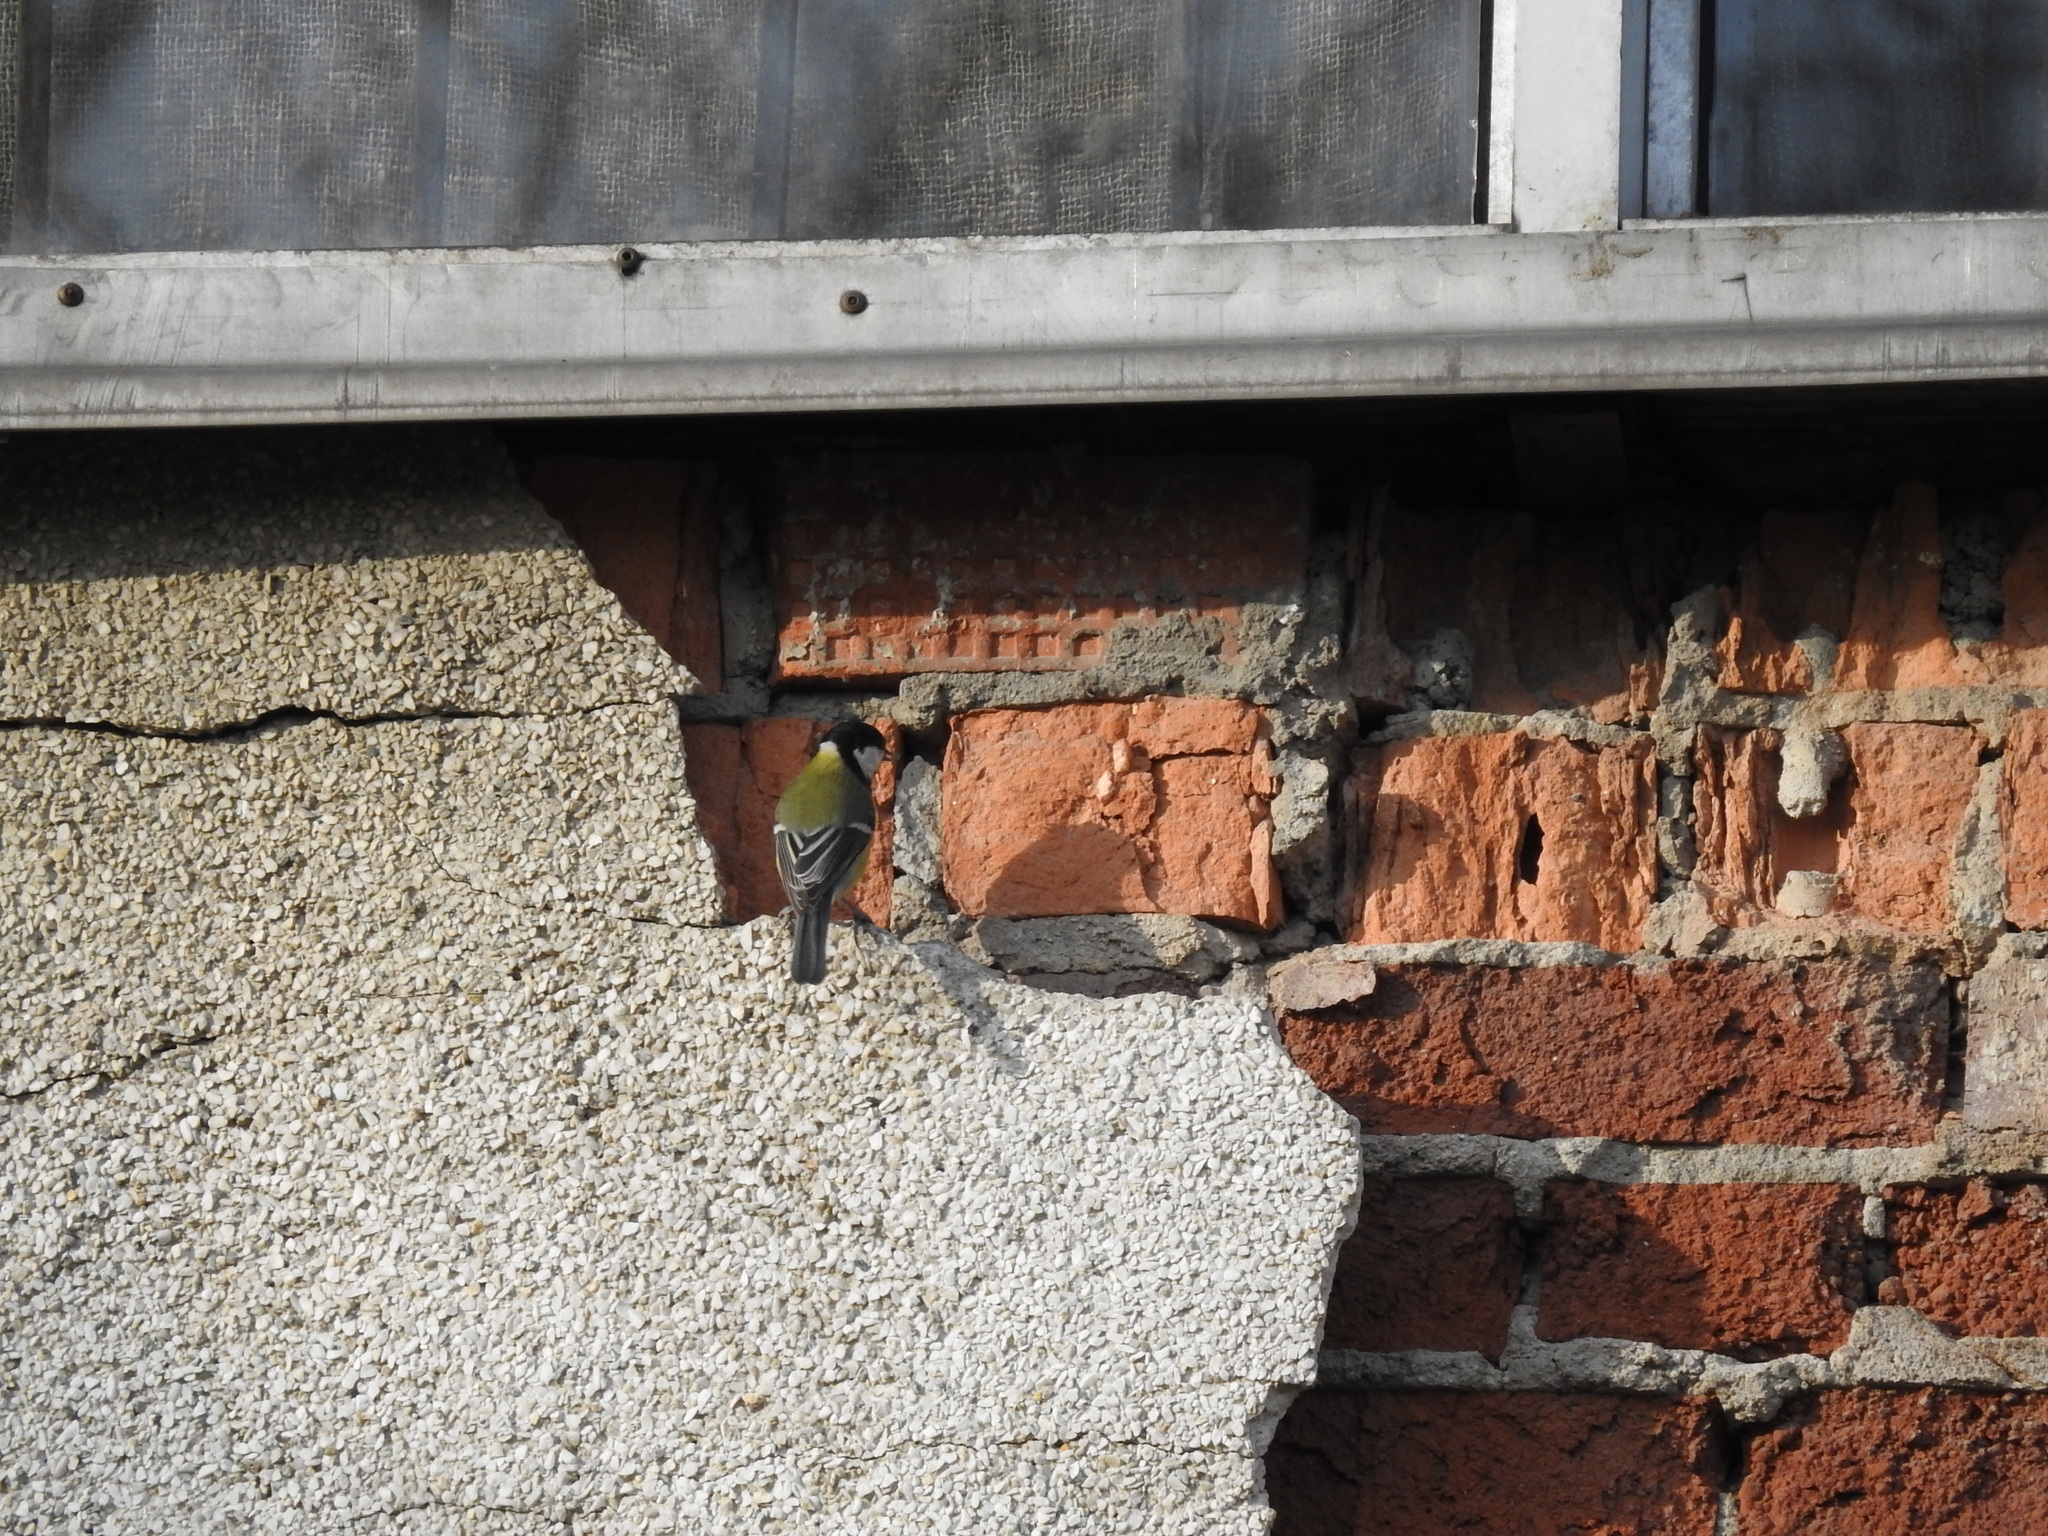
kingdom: Animalia
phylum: Chordata
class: Aves
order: Passeriformes
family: Paridae
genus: Parus
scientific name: Parus major
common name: Great tit
